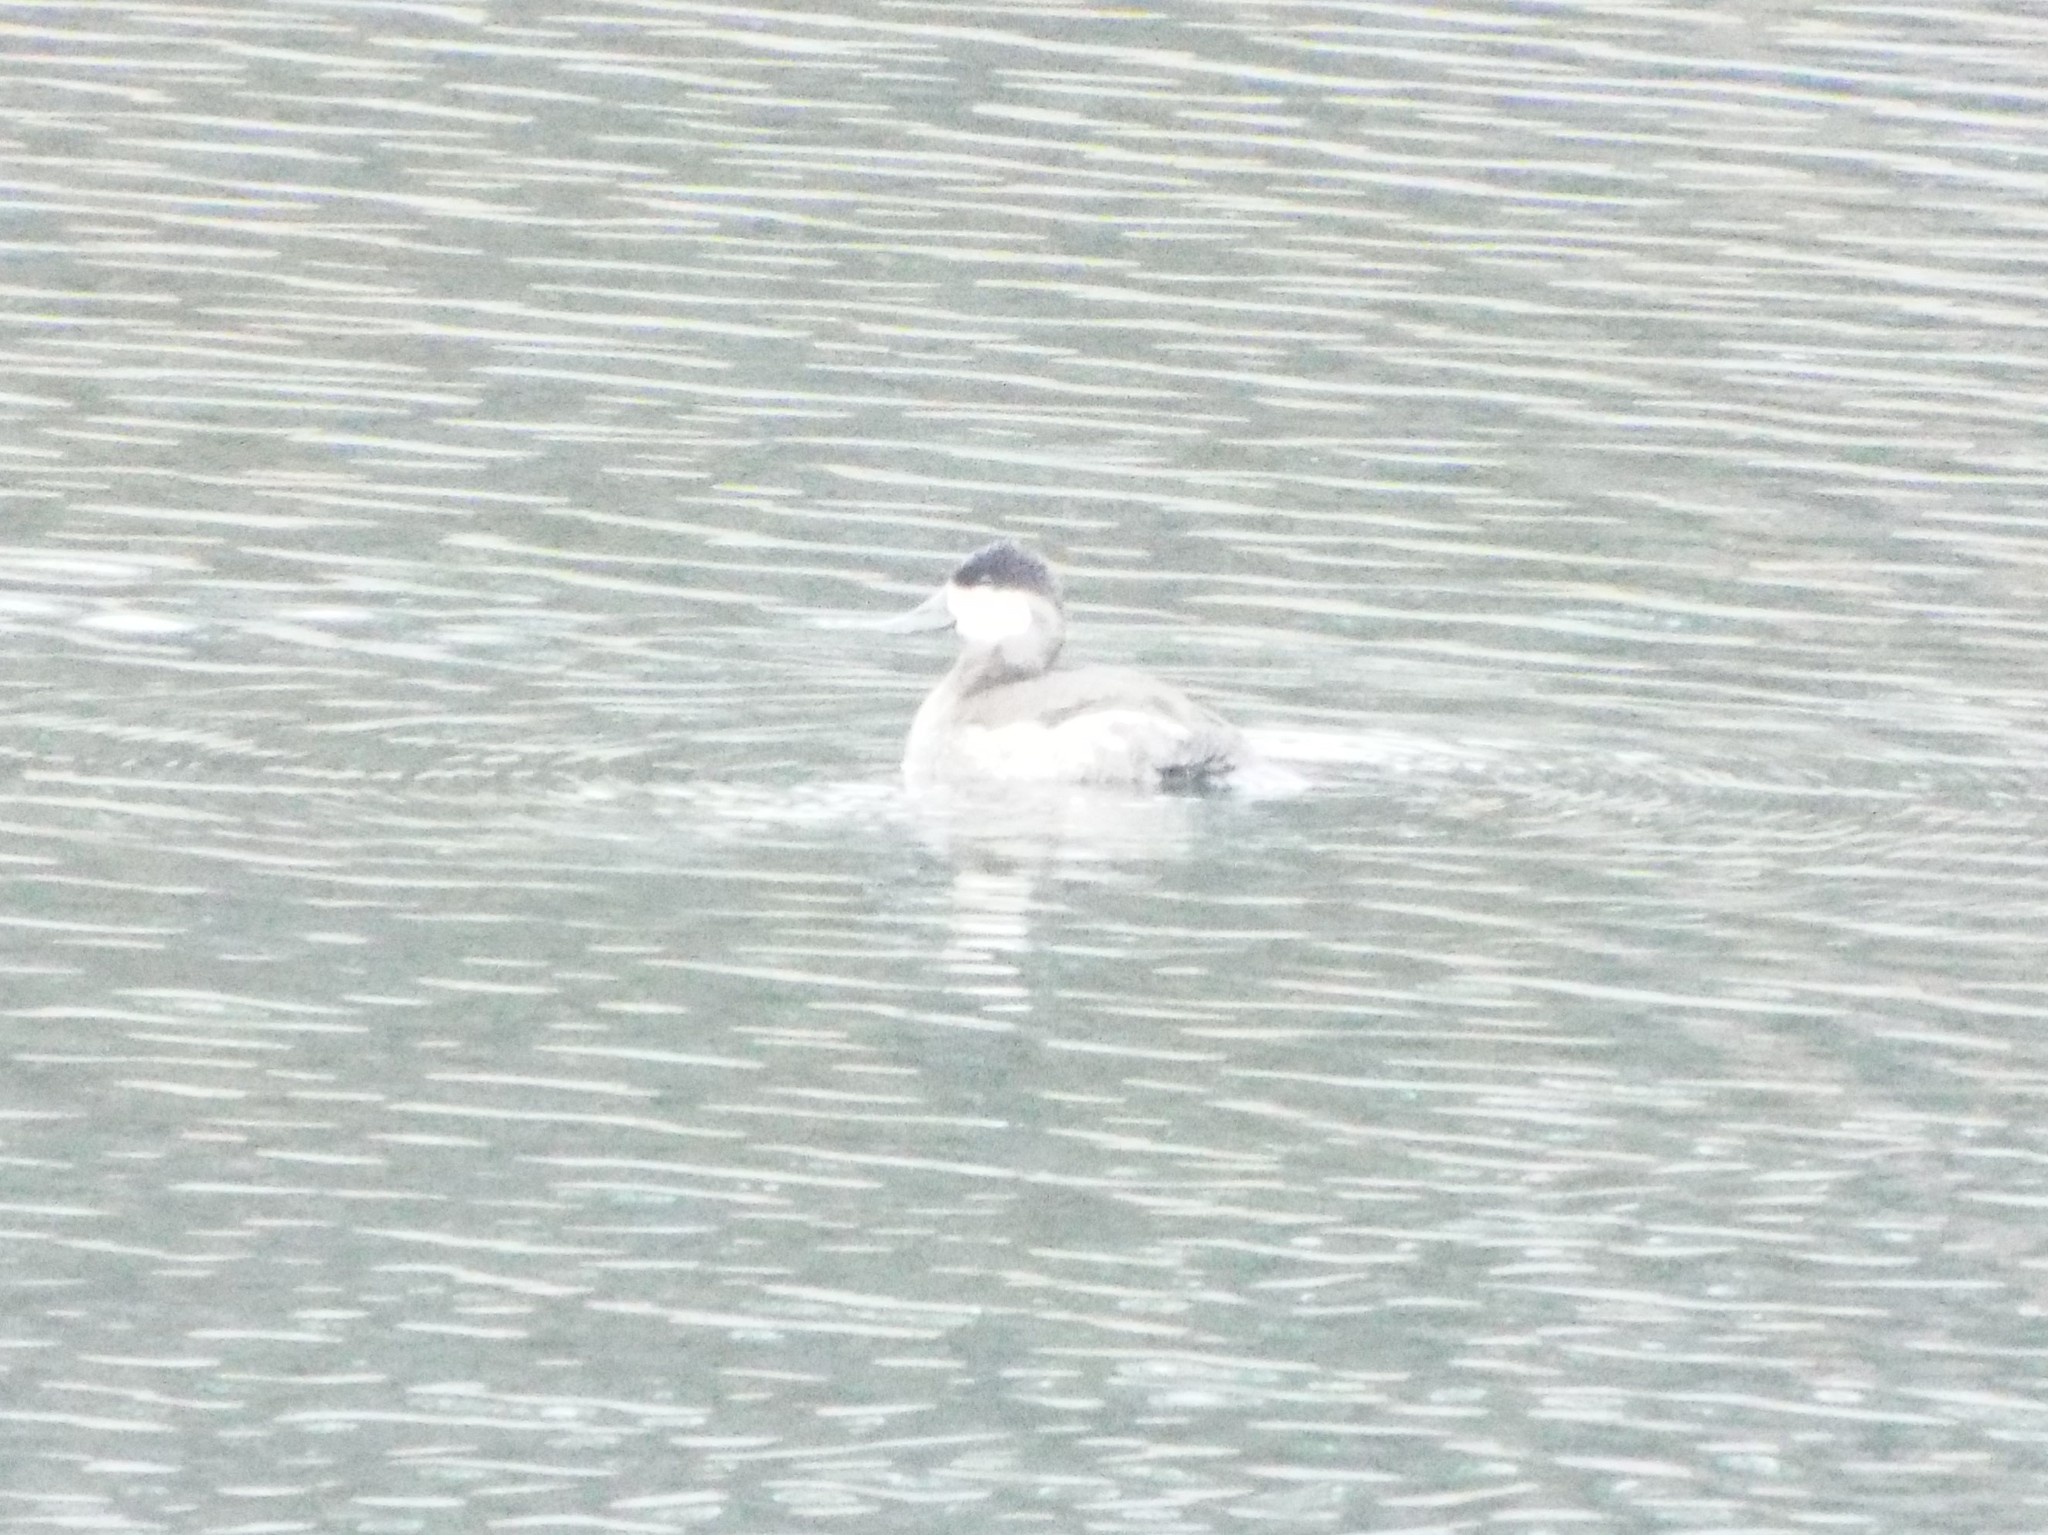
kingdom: Animalia
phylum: Chordata
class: Aves
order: Anseriformes
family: Anatidae
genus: Oxyura
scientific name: Oxyura jamaicensis
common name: Ruddy duck
